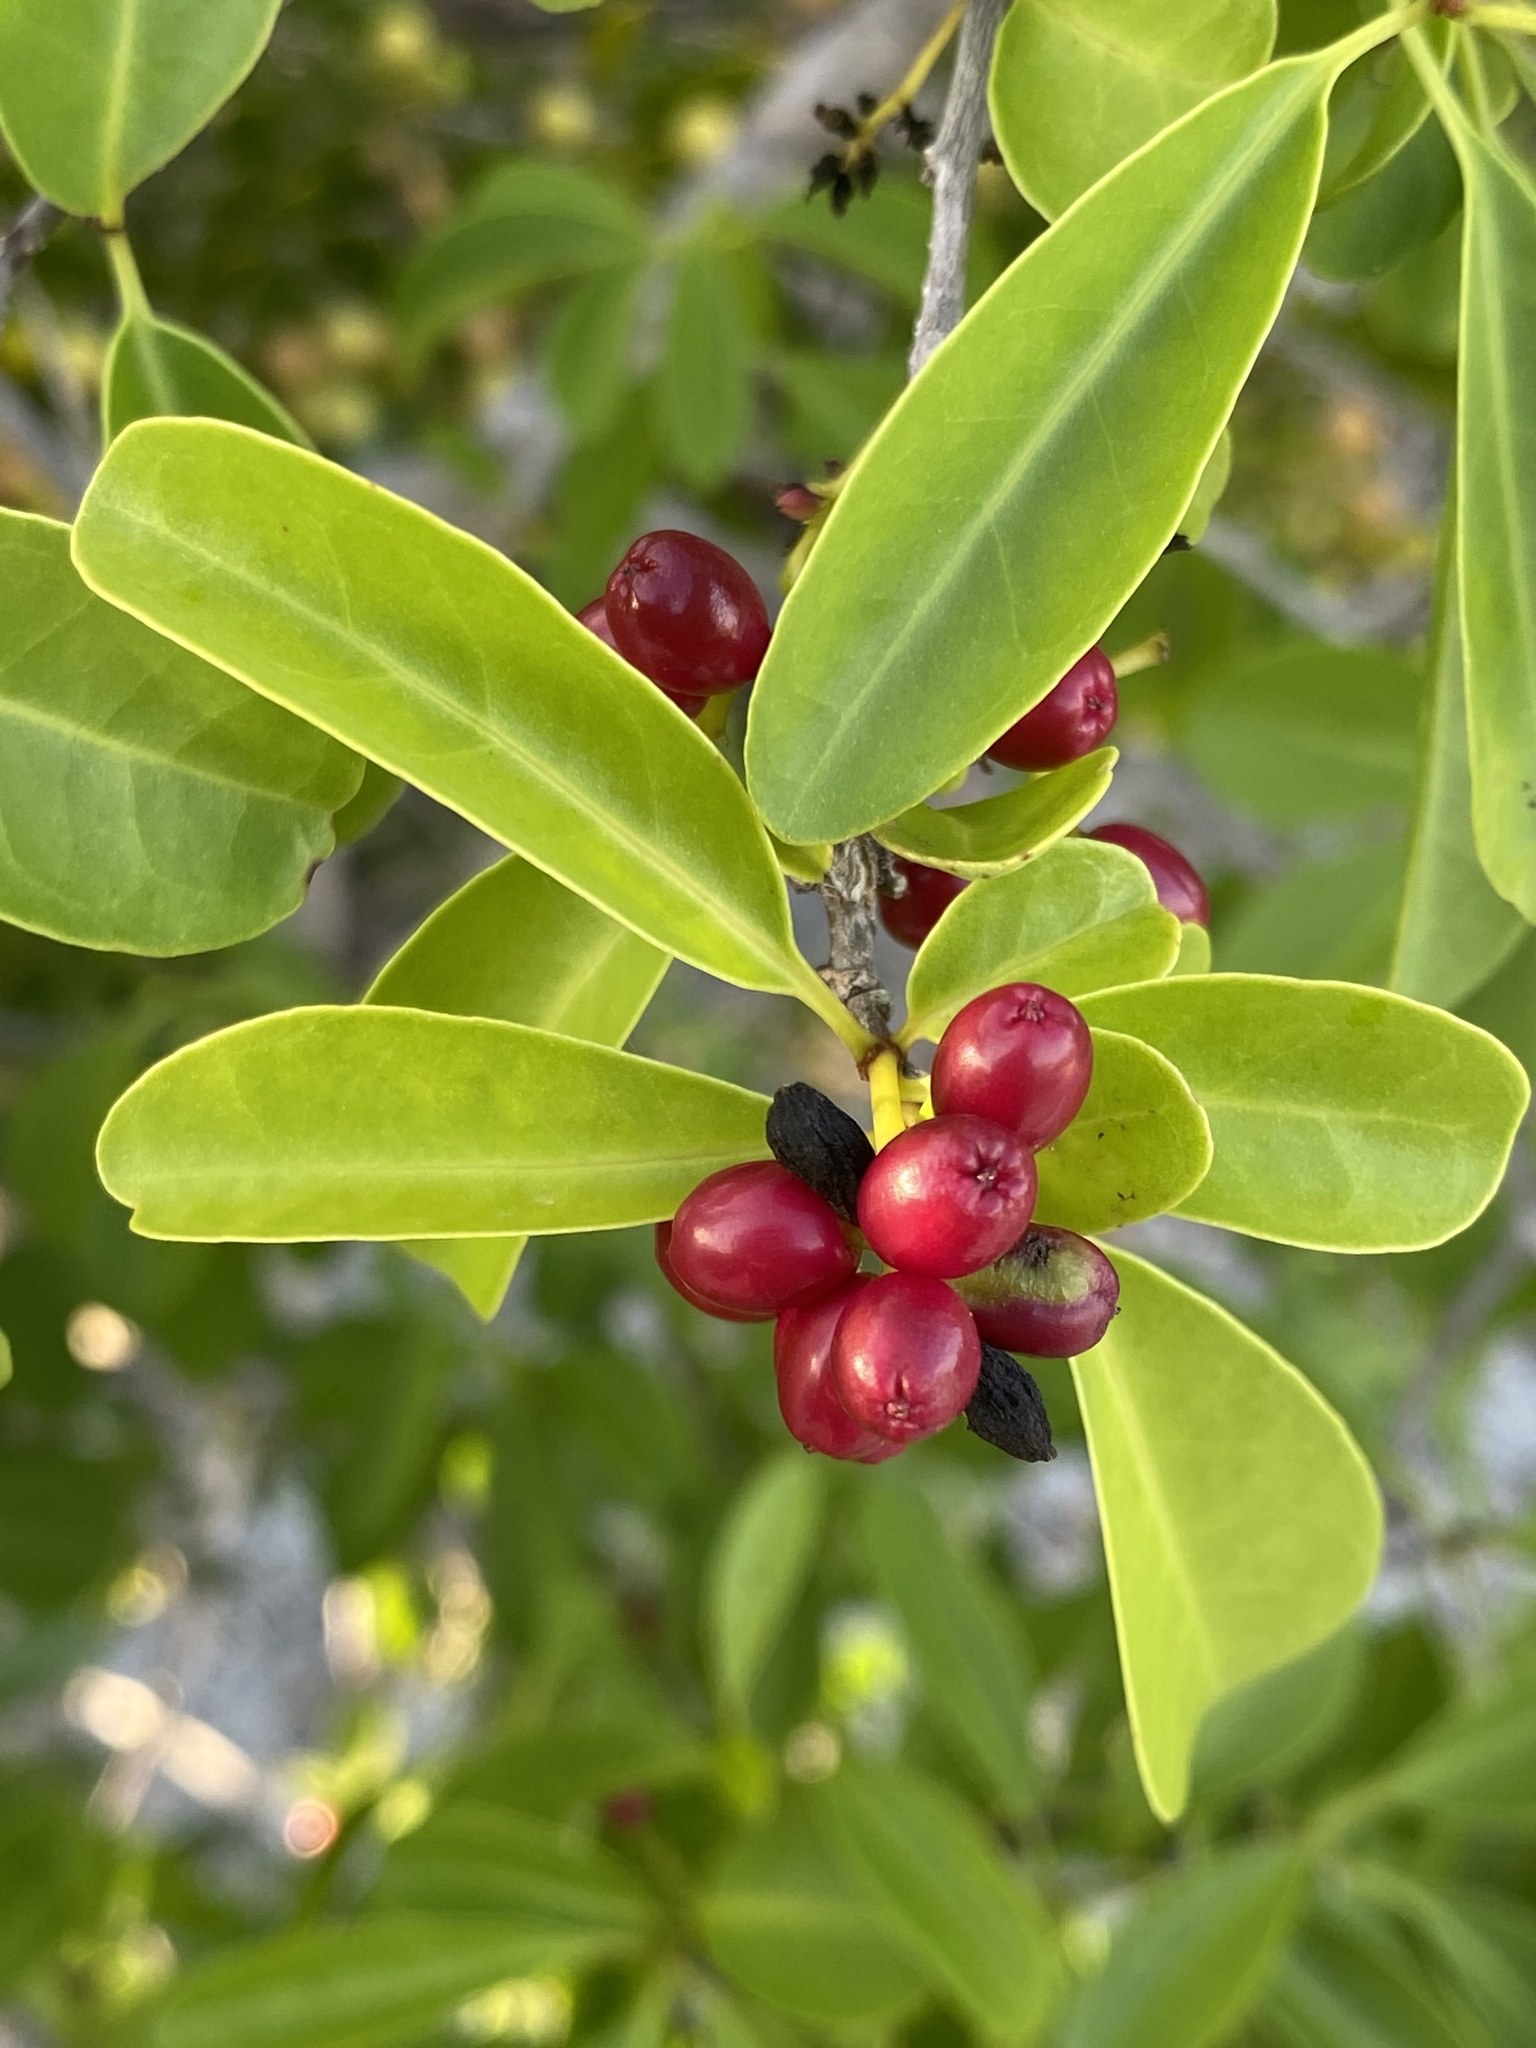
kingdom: Plantae
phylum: Tracheophyta
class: Magnoliopsida
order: Caryophyllales
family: Nyctaginaceae
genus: Guapira
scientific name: Guapira discolor
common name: Beeftree
